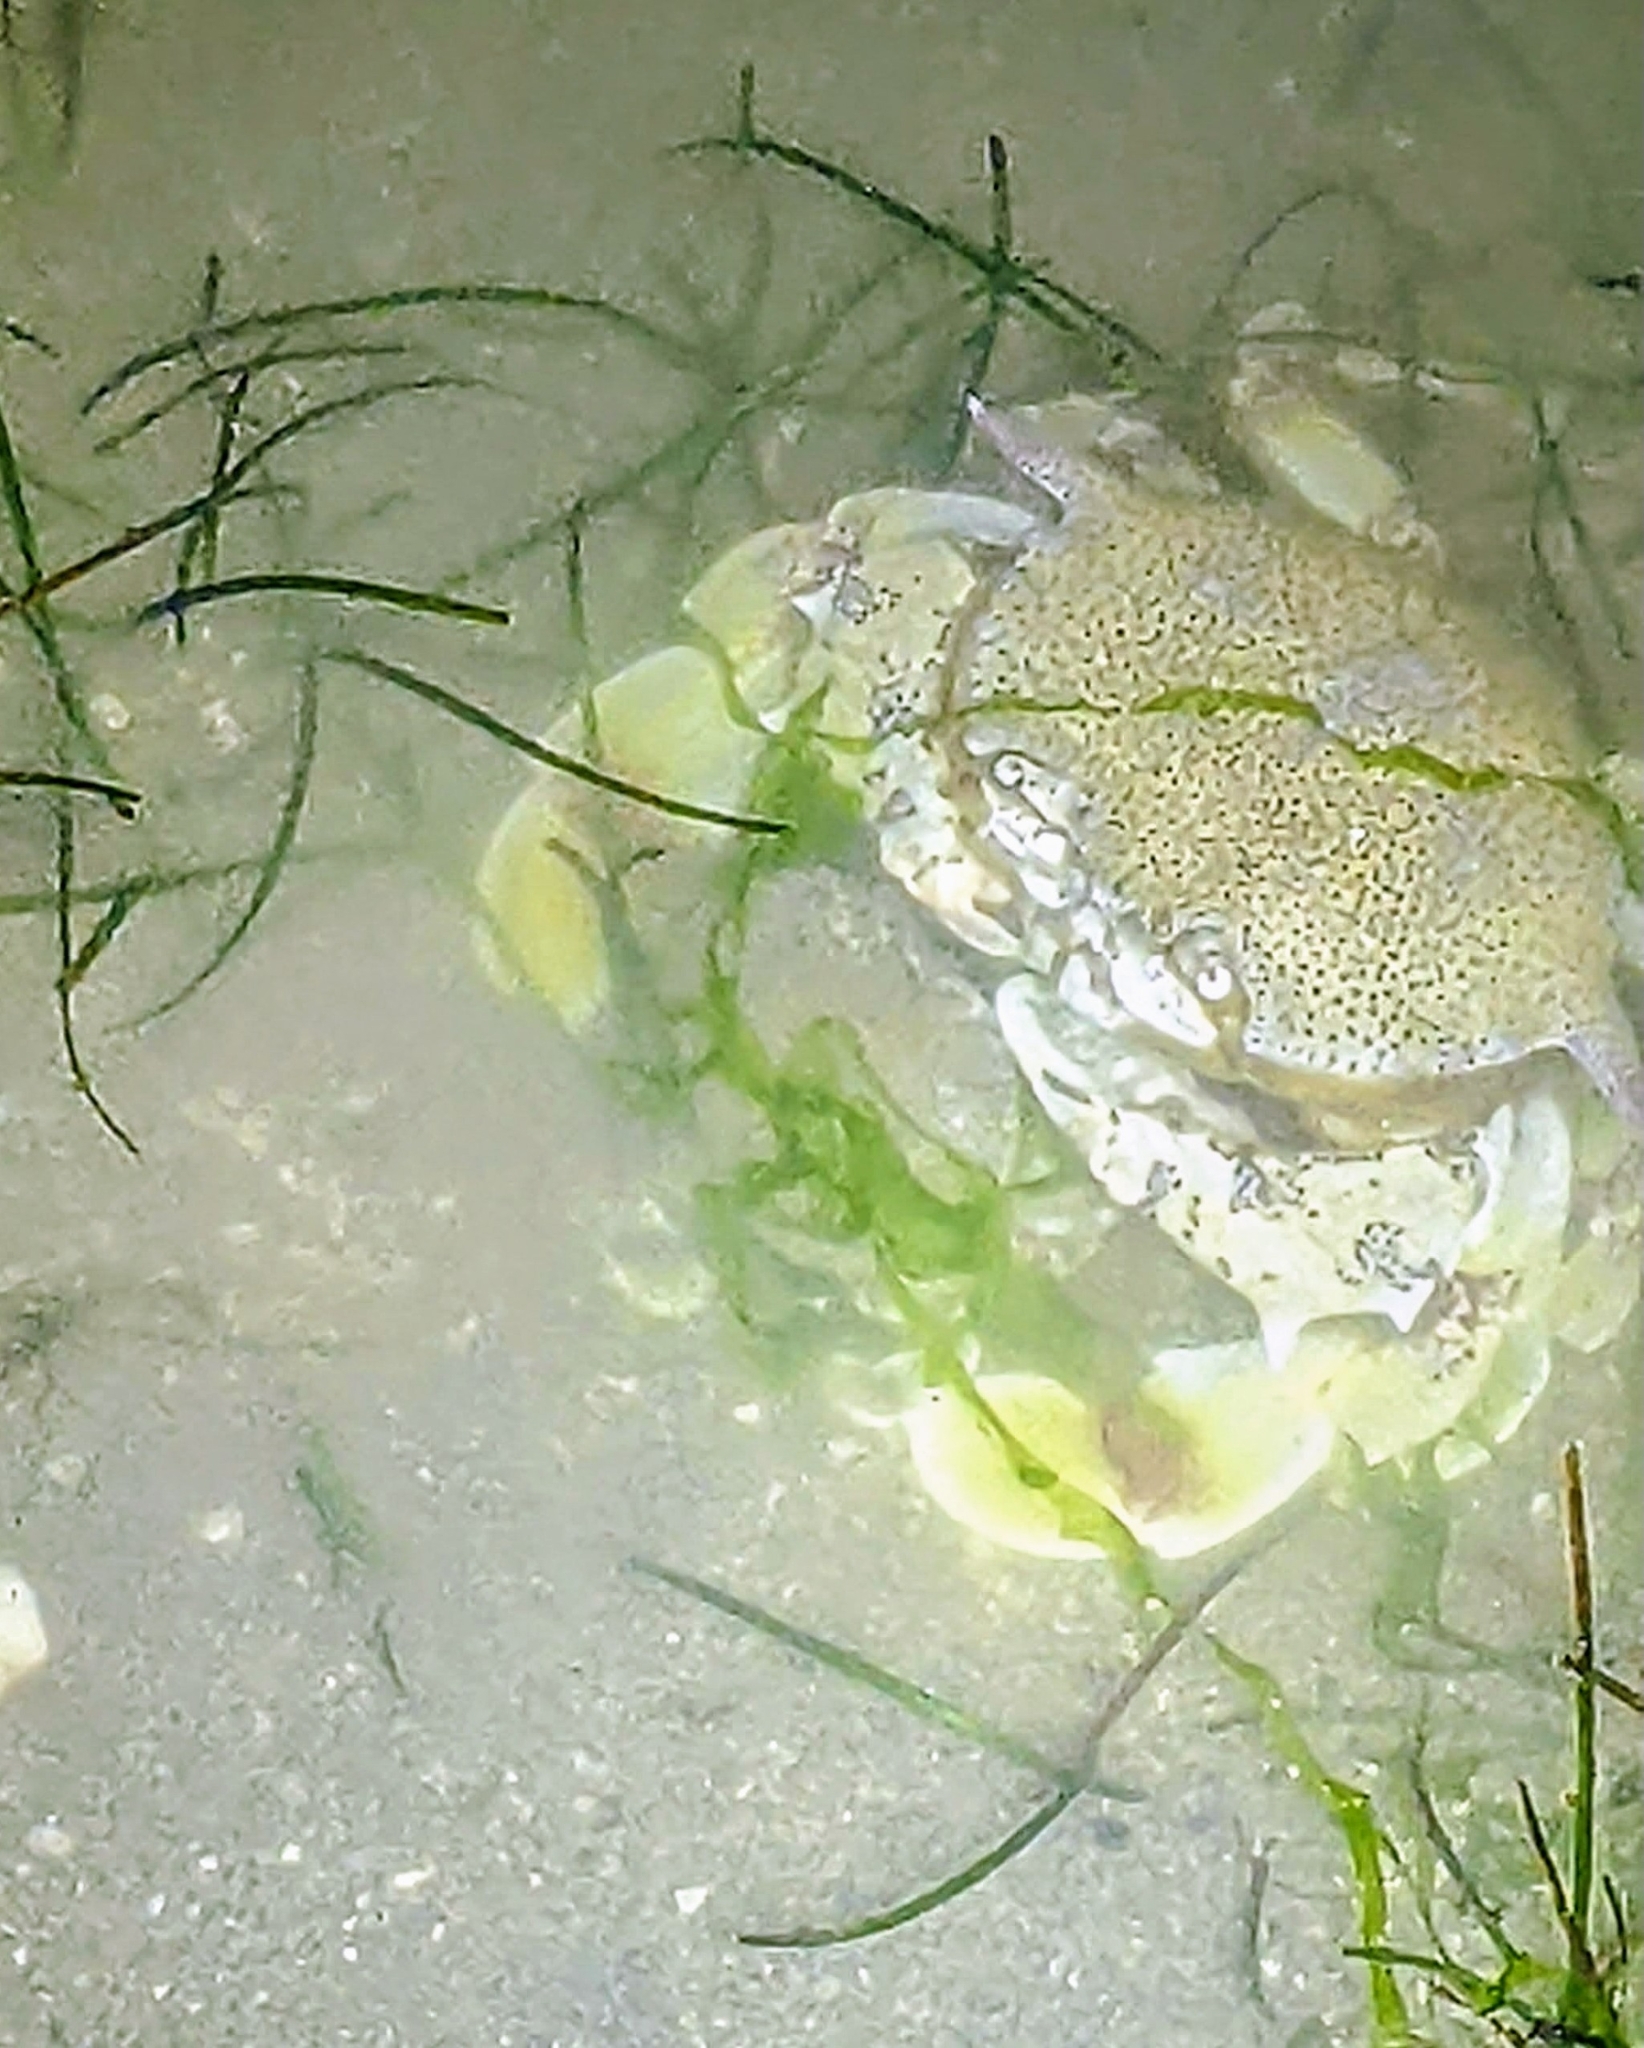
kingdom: Animalia
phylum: Arthropoda
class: Malacostraca
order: Decapoda
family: Matutidae
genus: Matuta
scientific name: Matuta victor
